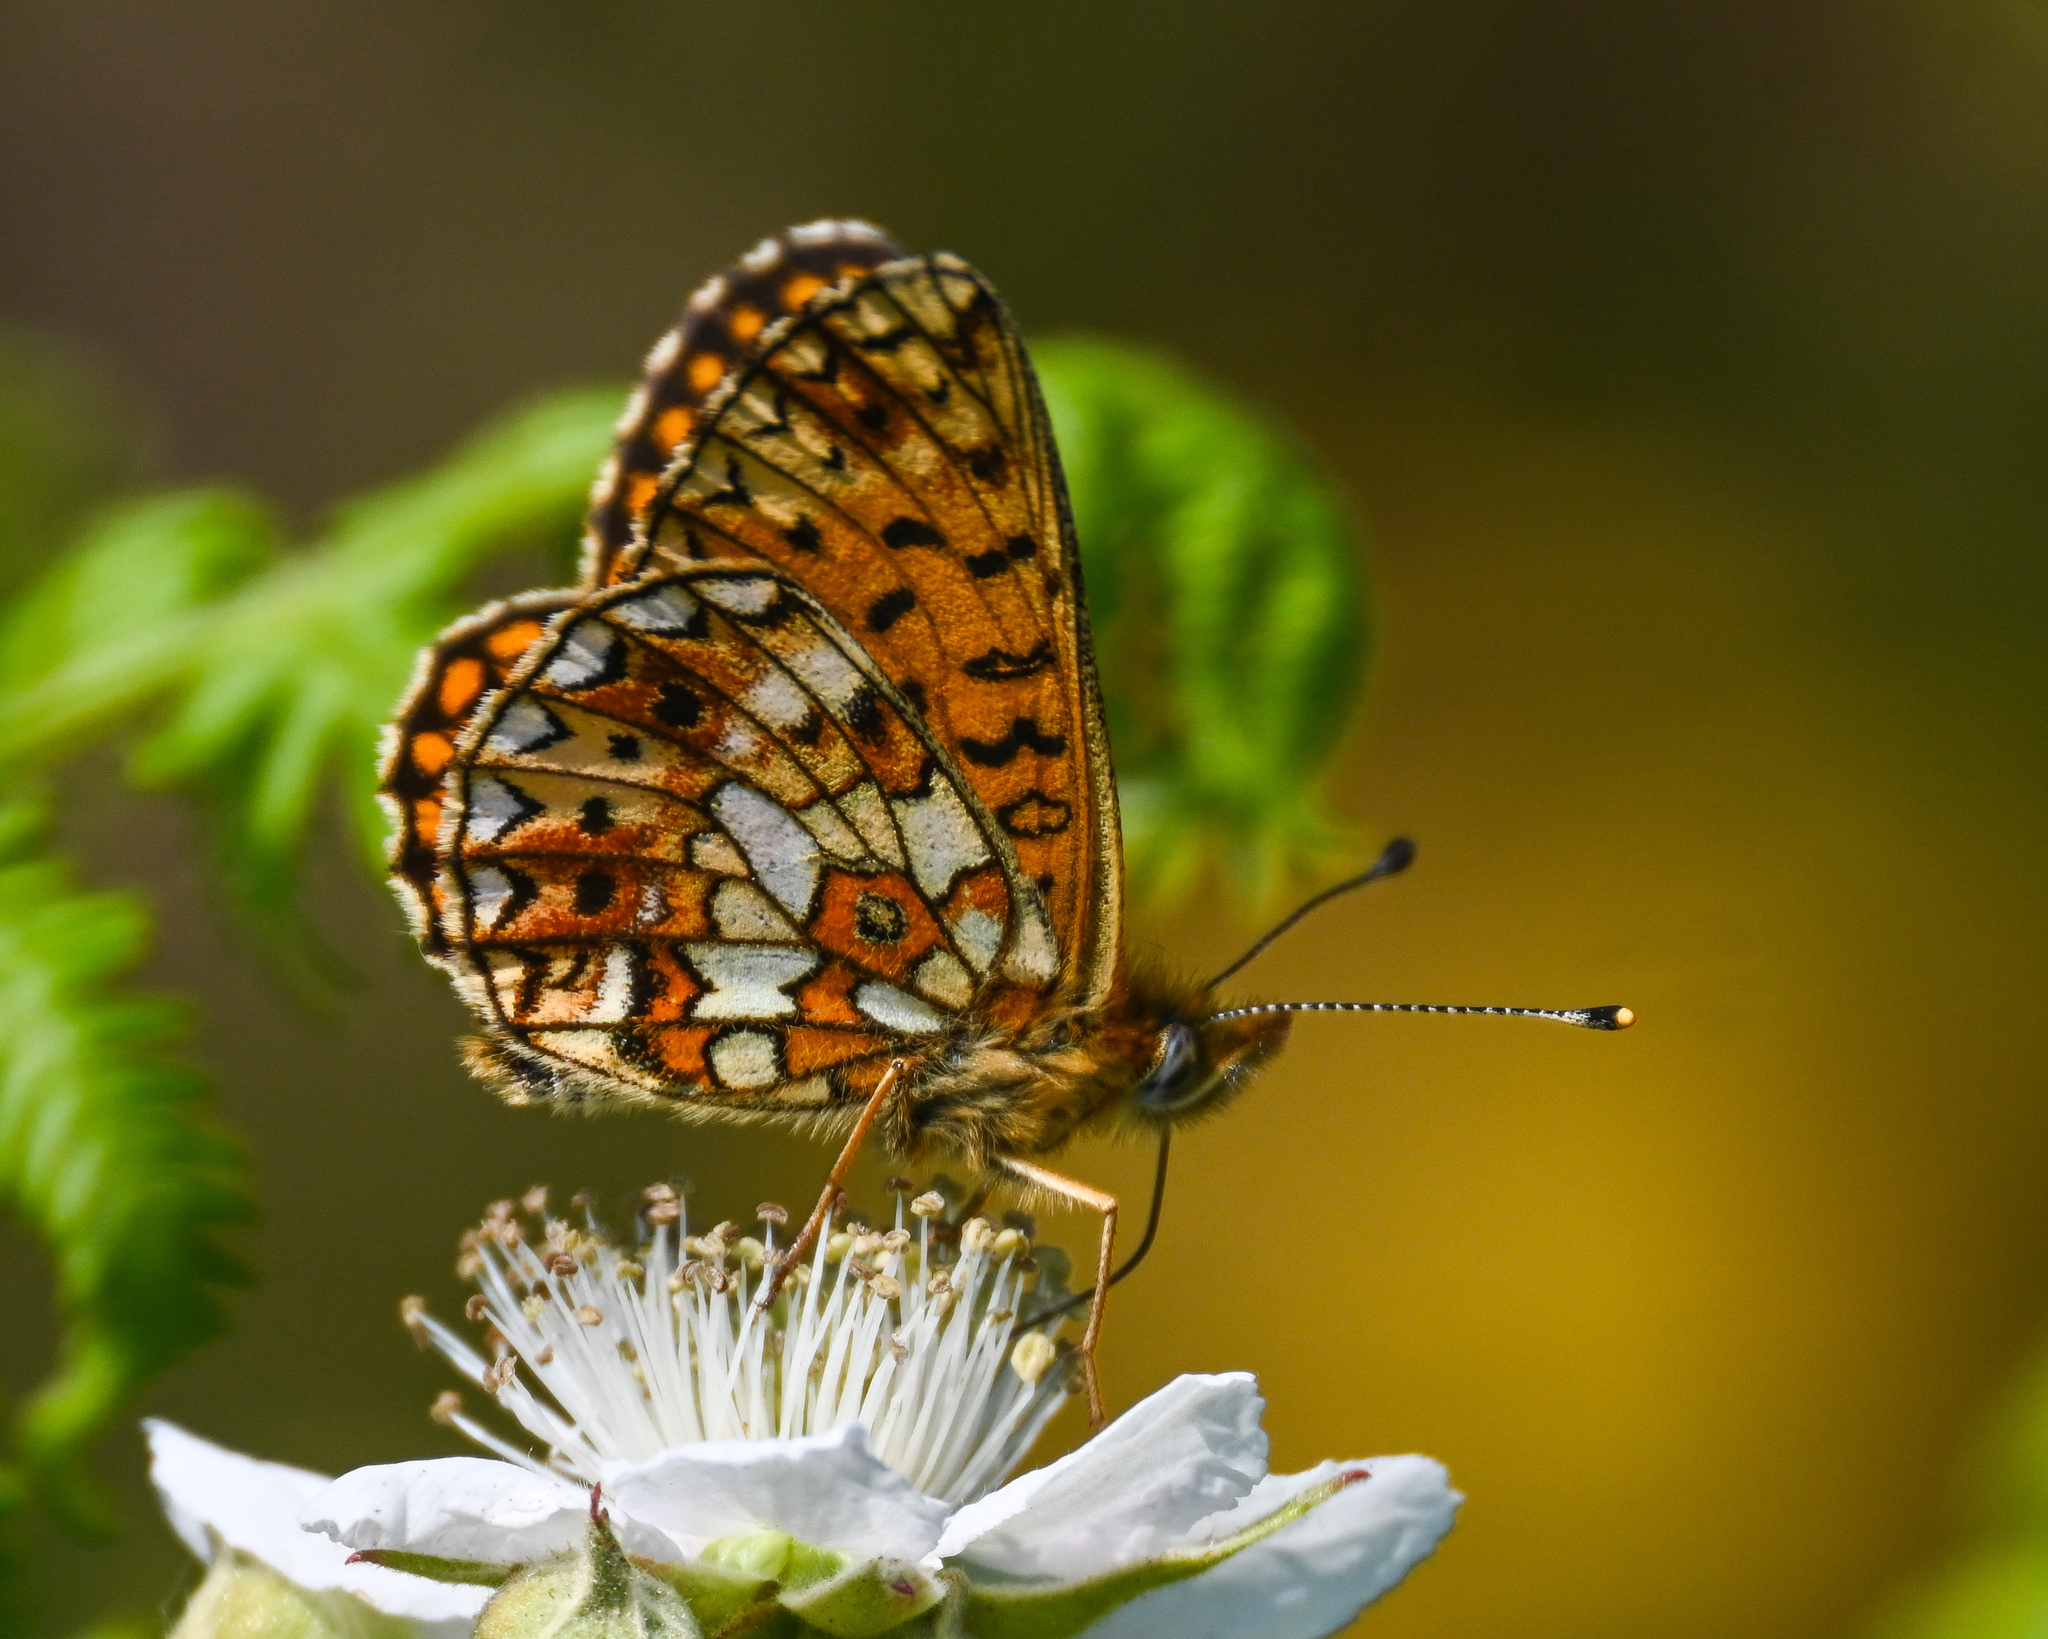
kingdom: Animalia
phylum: Arthropoda
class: Insecta
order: Lepidoptera
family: Nymphalidae
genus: Boloria
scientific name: Boloria selene
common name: Small pearl-bordered fritillary
